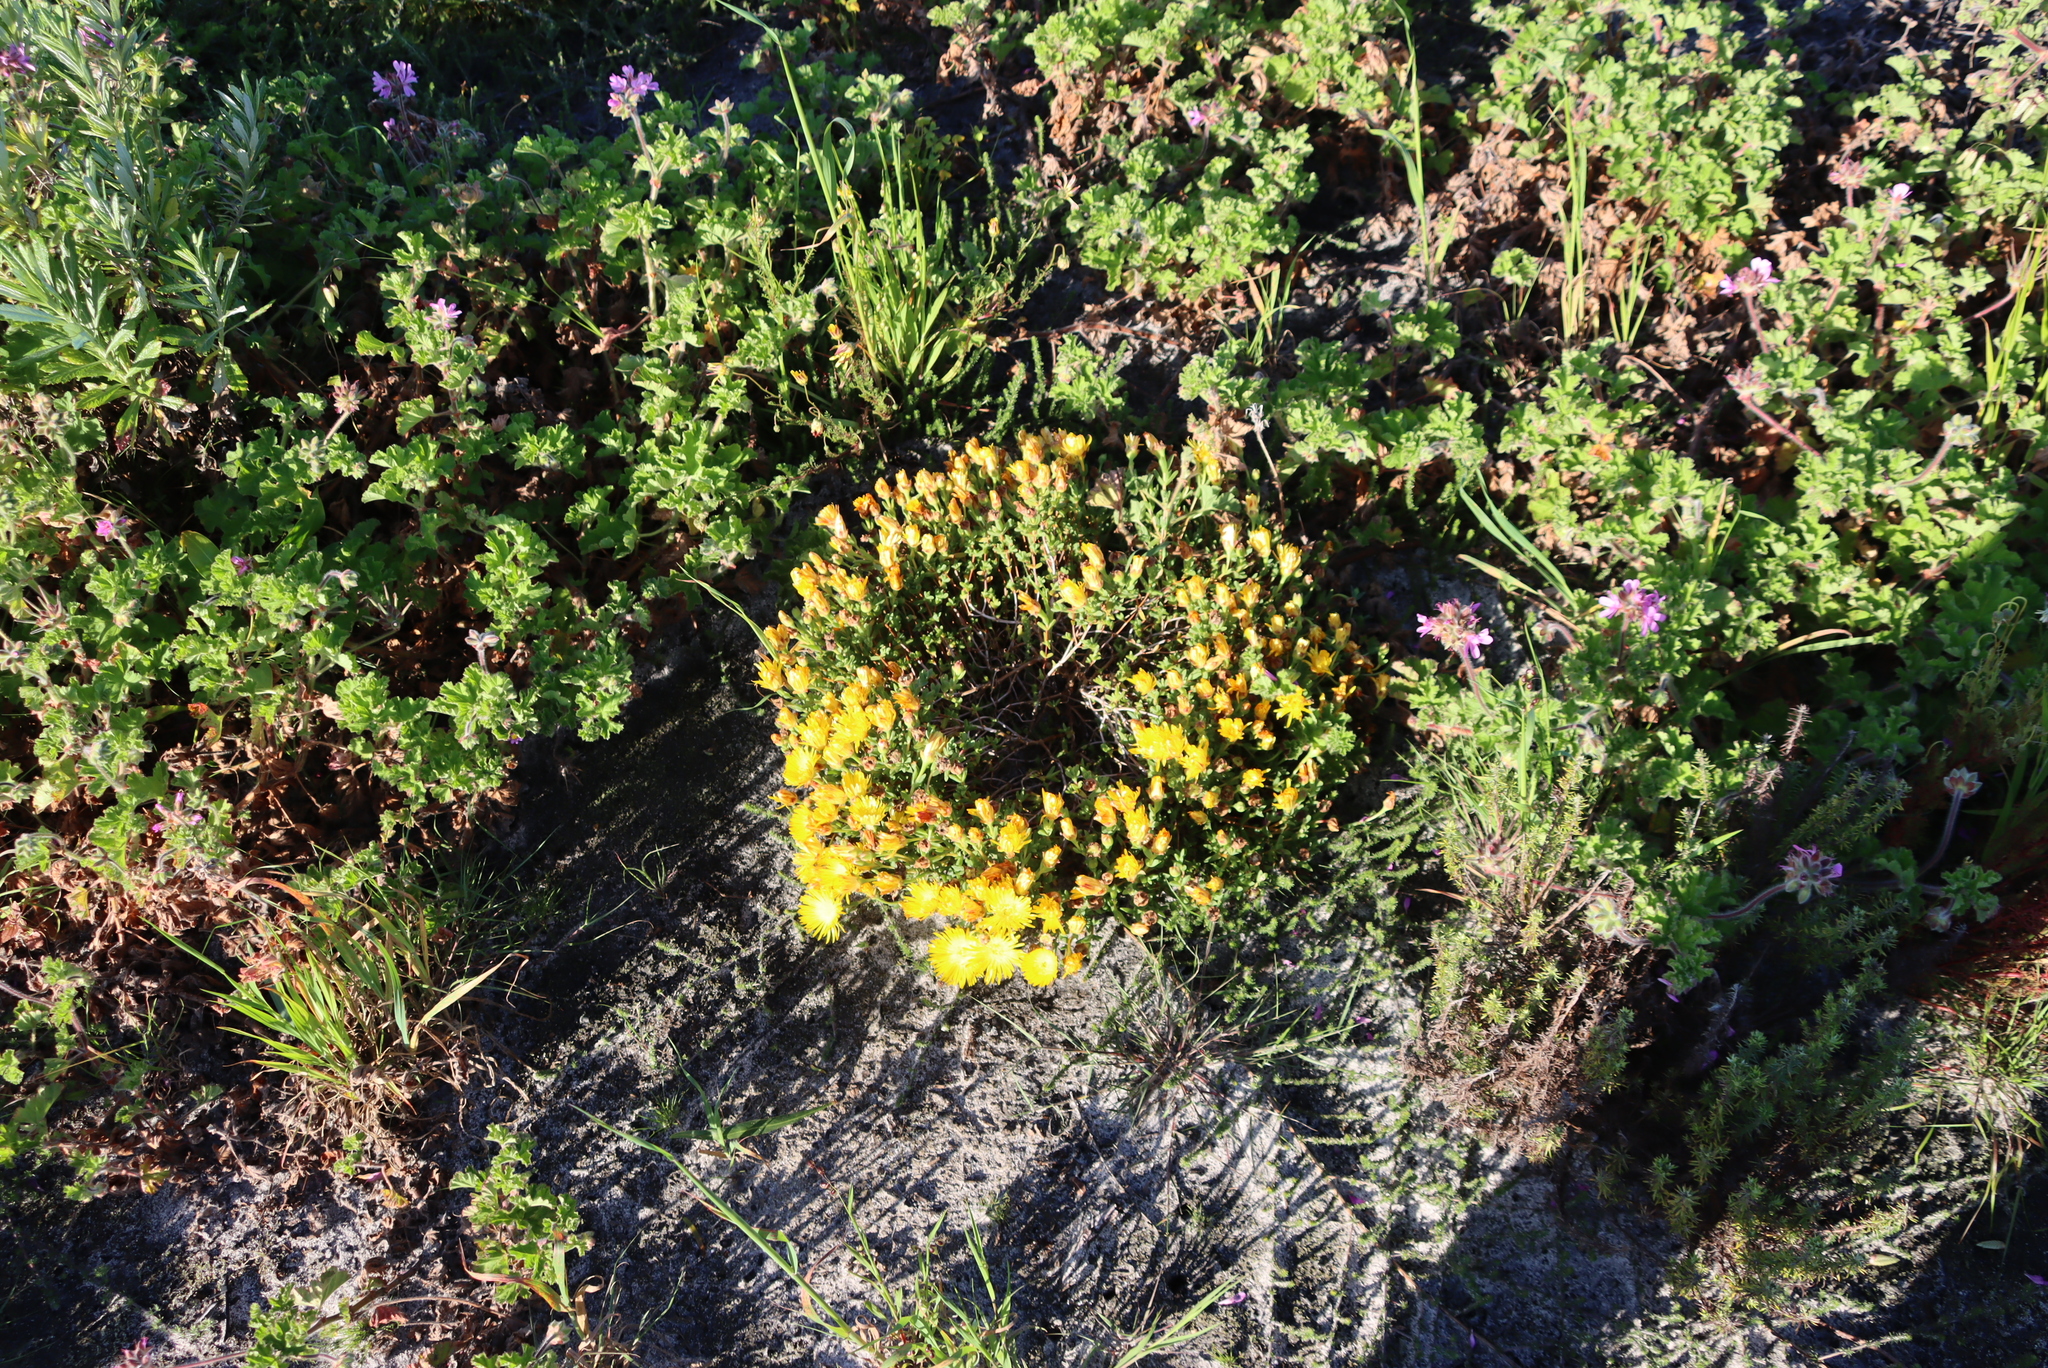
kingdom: Plantae
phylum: Tracheophyta
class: Magnoliopsida
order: Caryophyllales
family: Aizoaceae
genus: Lampranthus
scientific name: Lampranthus glaucus
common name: Noonflower
